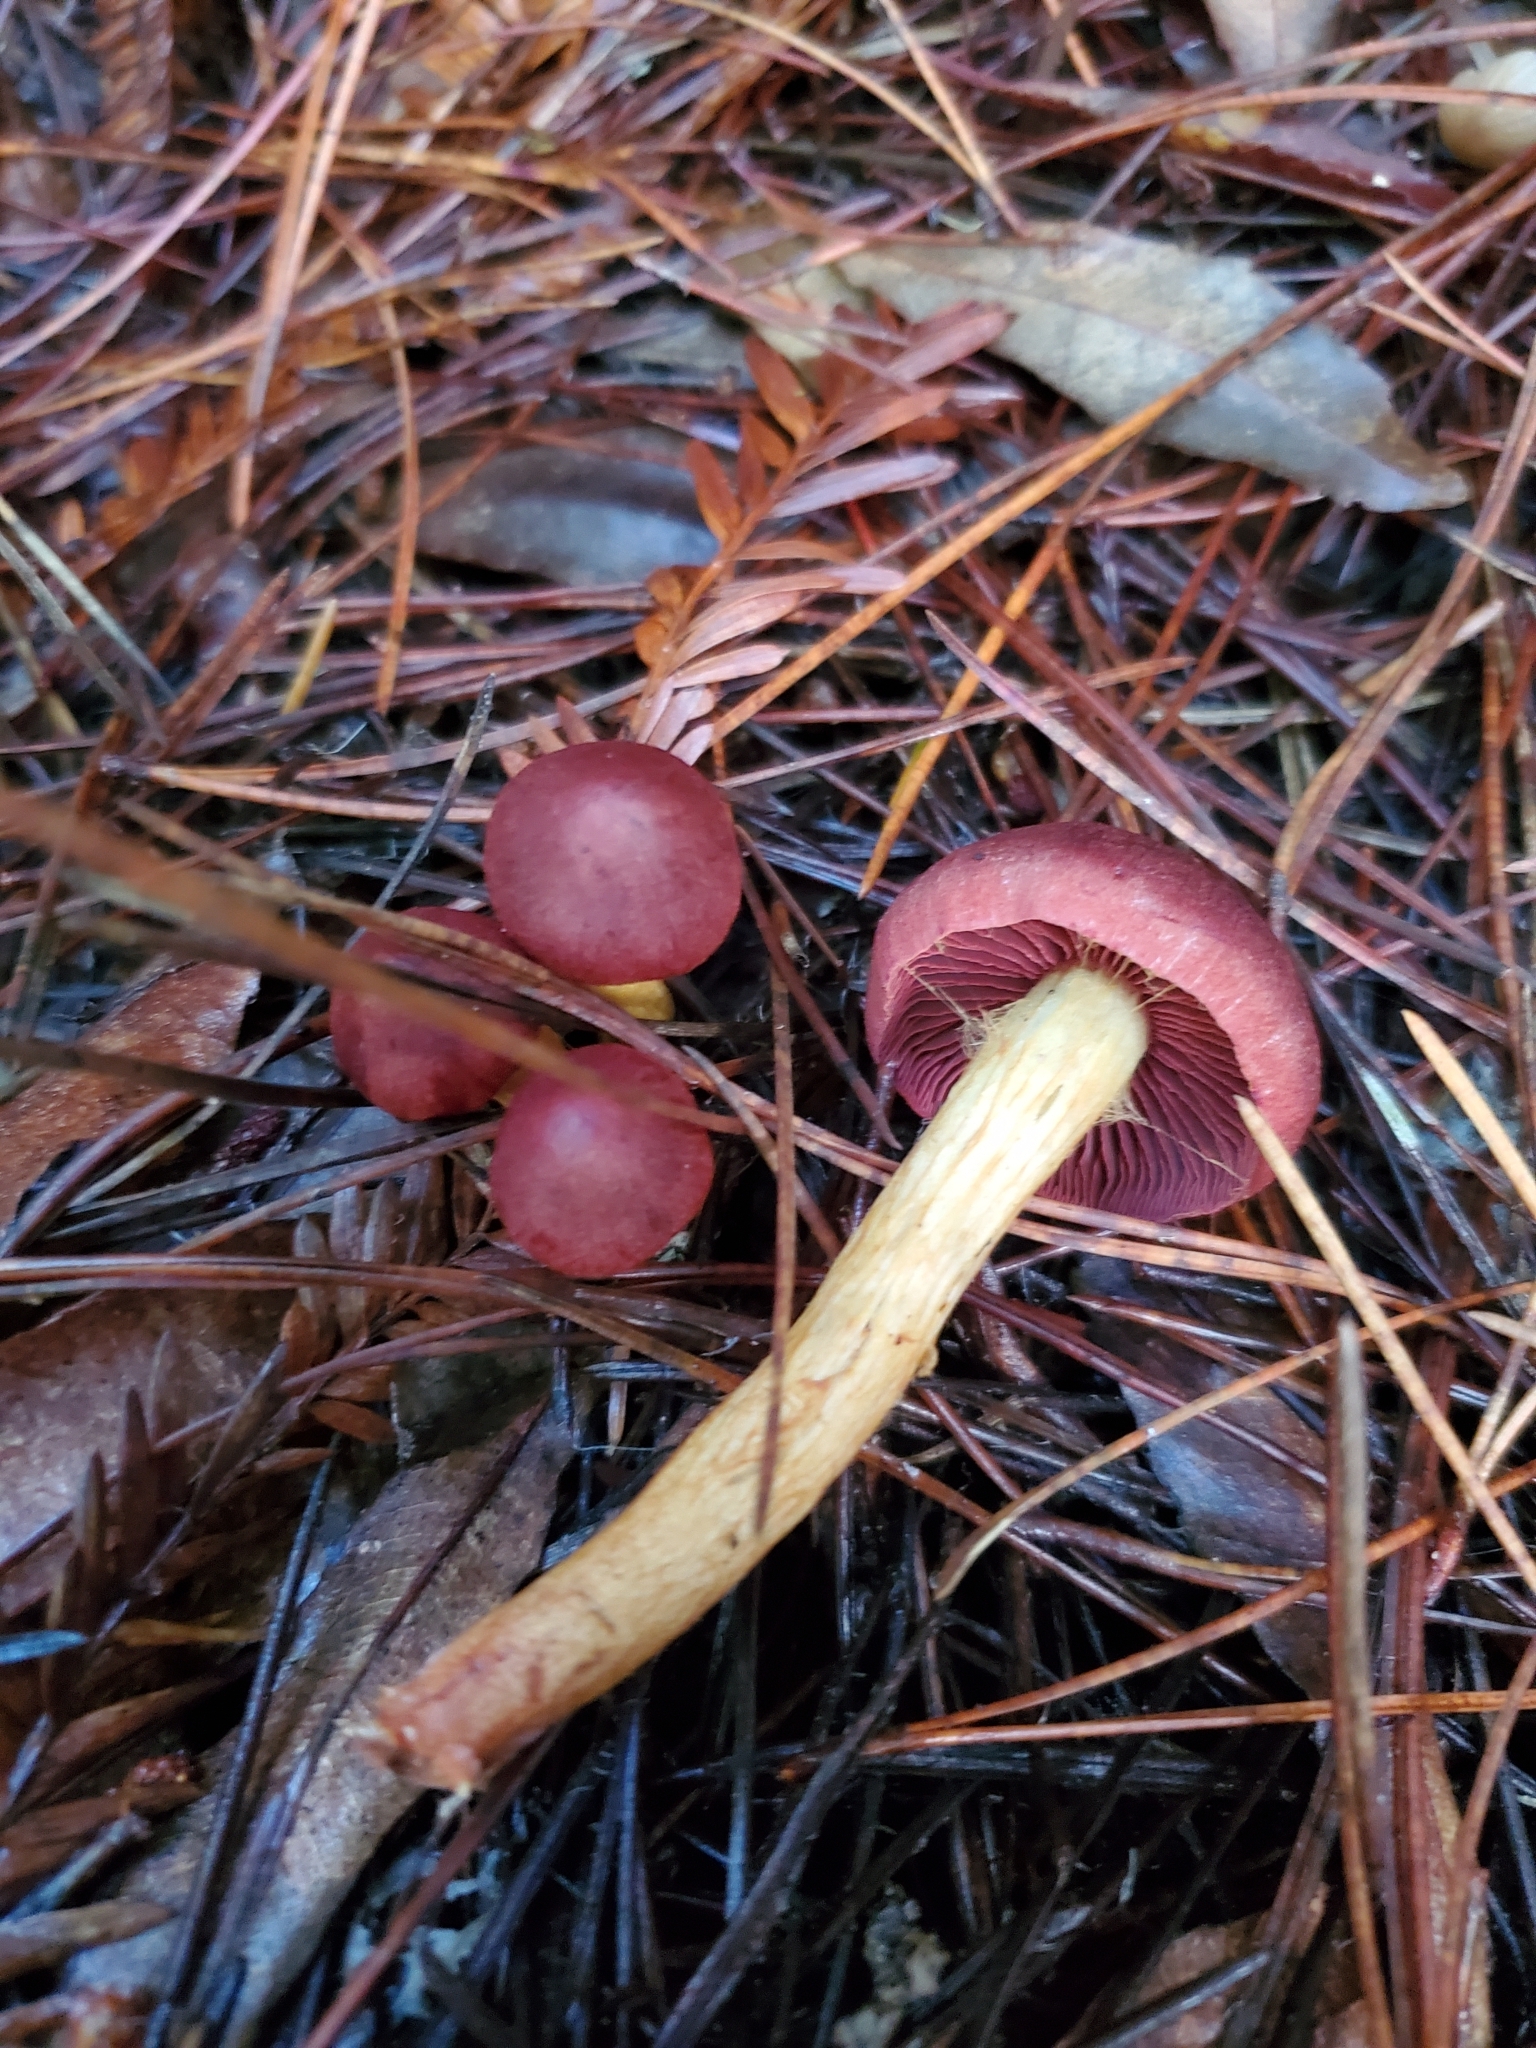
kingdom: Fungi
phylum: Basidiomycota
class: Agaricomycetes
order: Agaricales
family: Cortinariaceae
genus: Cortinarius
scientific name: Cortinarius smithii
